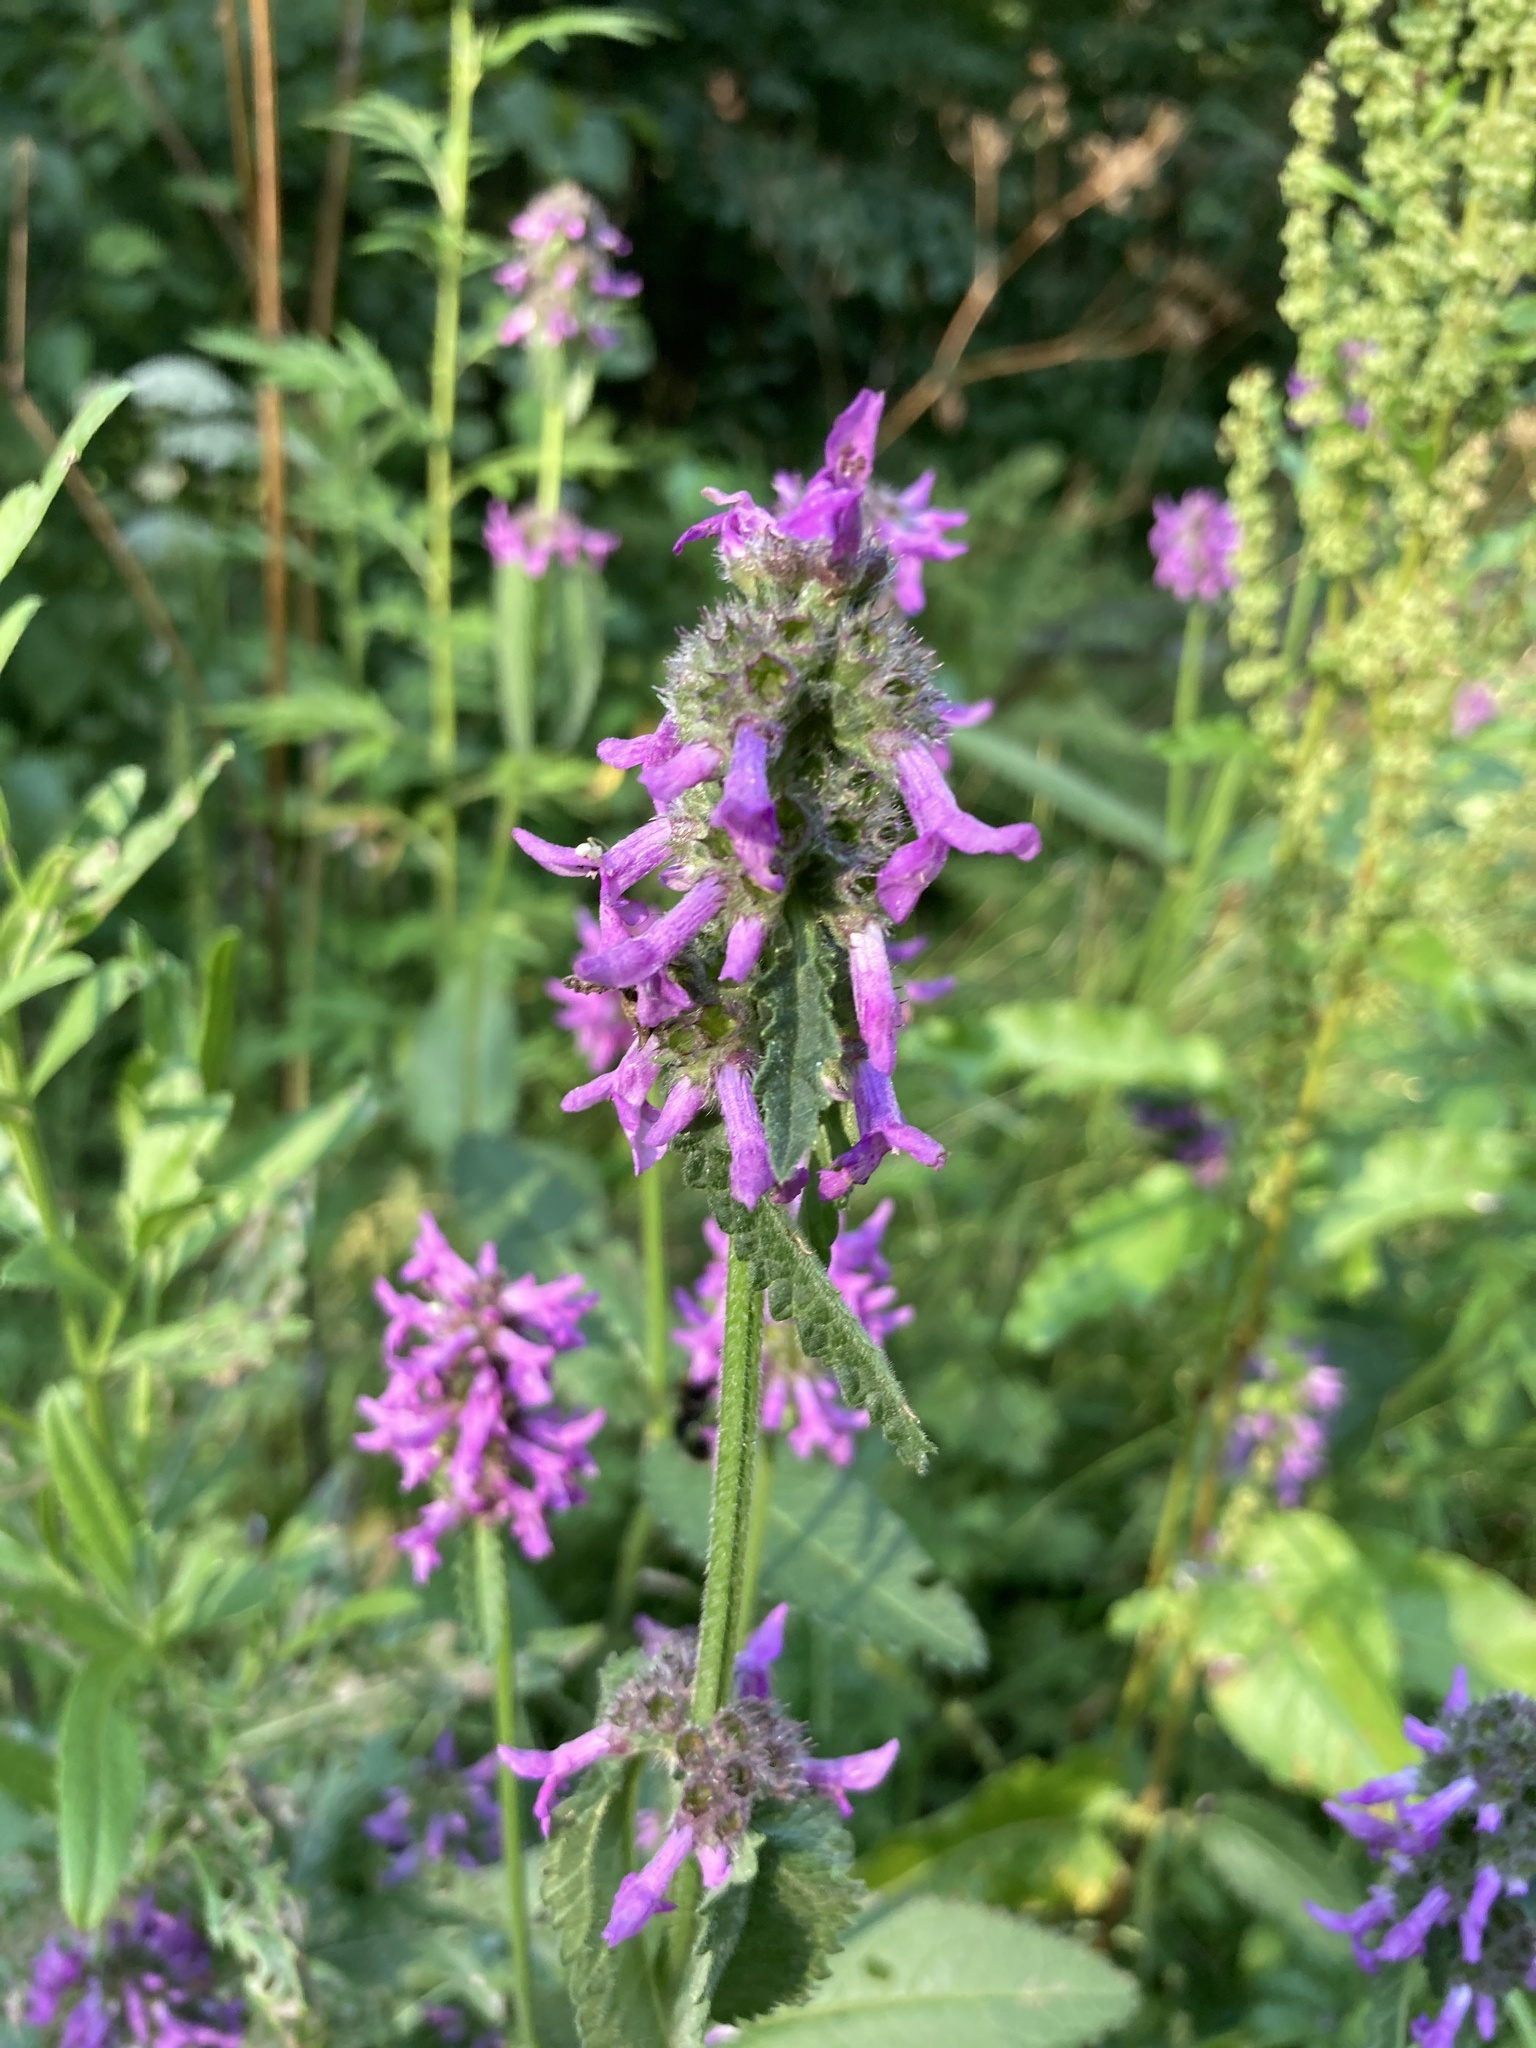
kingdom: Plantae
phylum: Tracheophyta
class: Magnoliopsida
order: Lamiales
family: Lamiaceae
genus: Betonica
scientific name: Betonica officinalis
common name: Bishop's-wort
